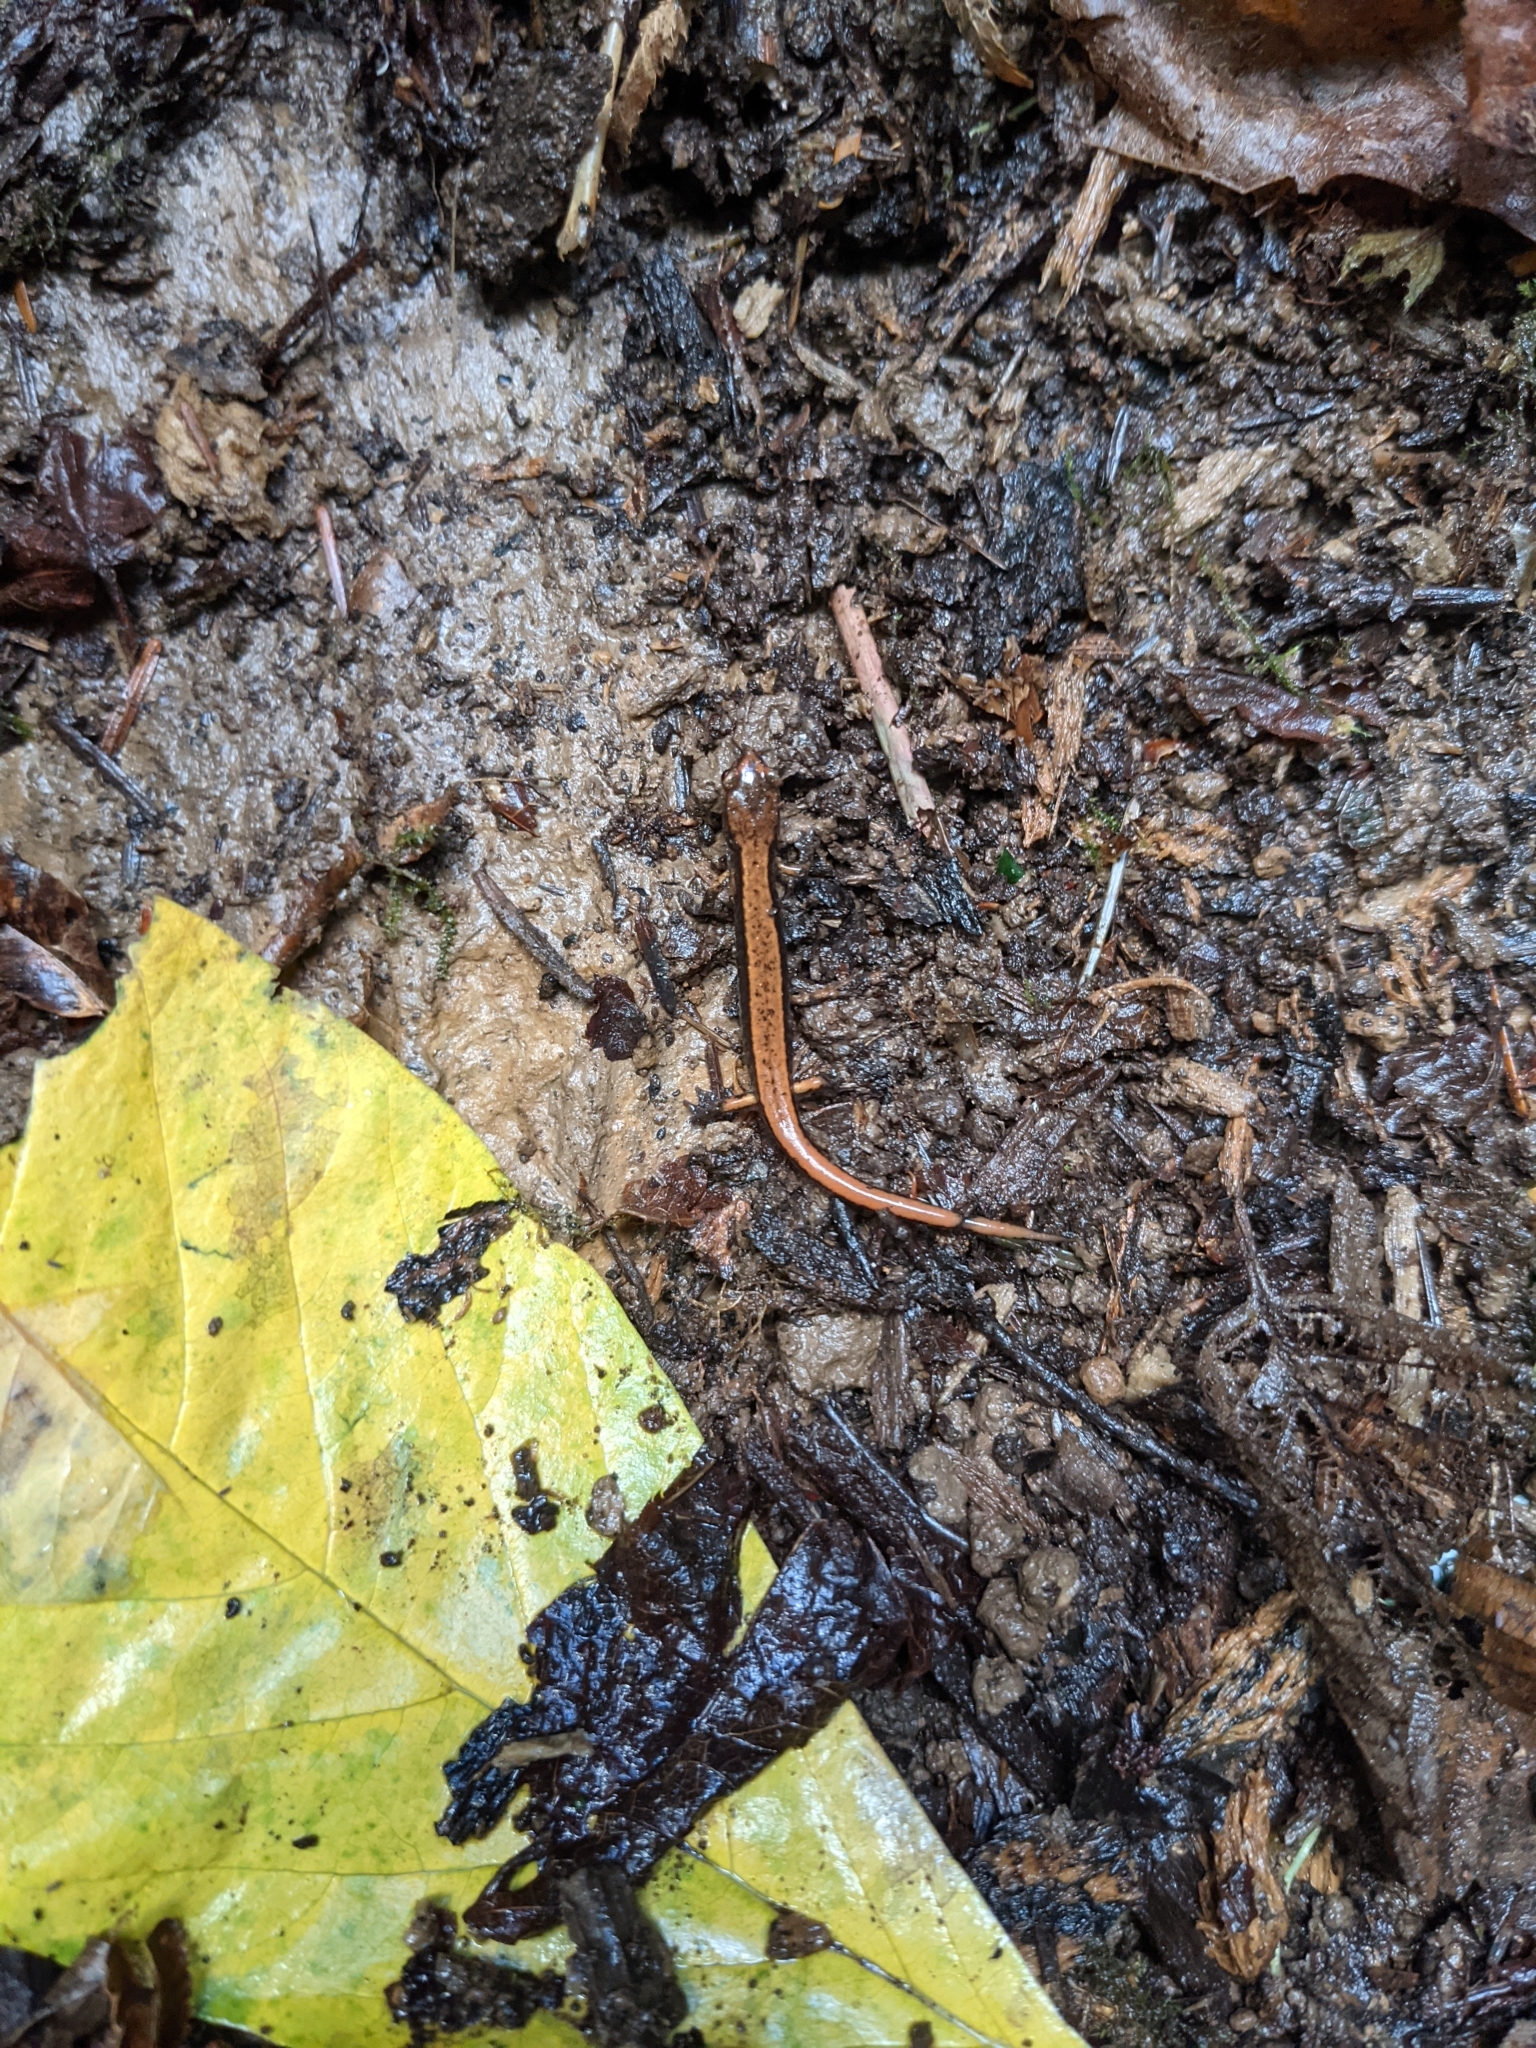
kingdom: Animalia
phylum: Chordata
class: Amphibia
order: Caudata
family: Plethodontidae
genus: Plethodon
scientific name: Plethodon vehiculum
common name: Western red-backed salamander
